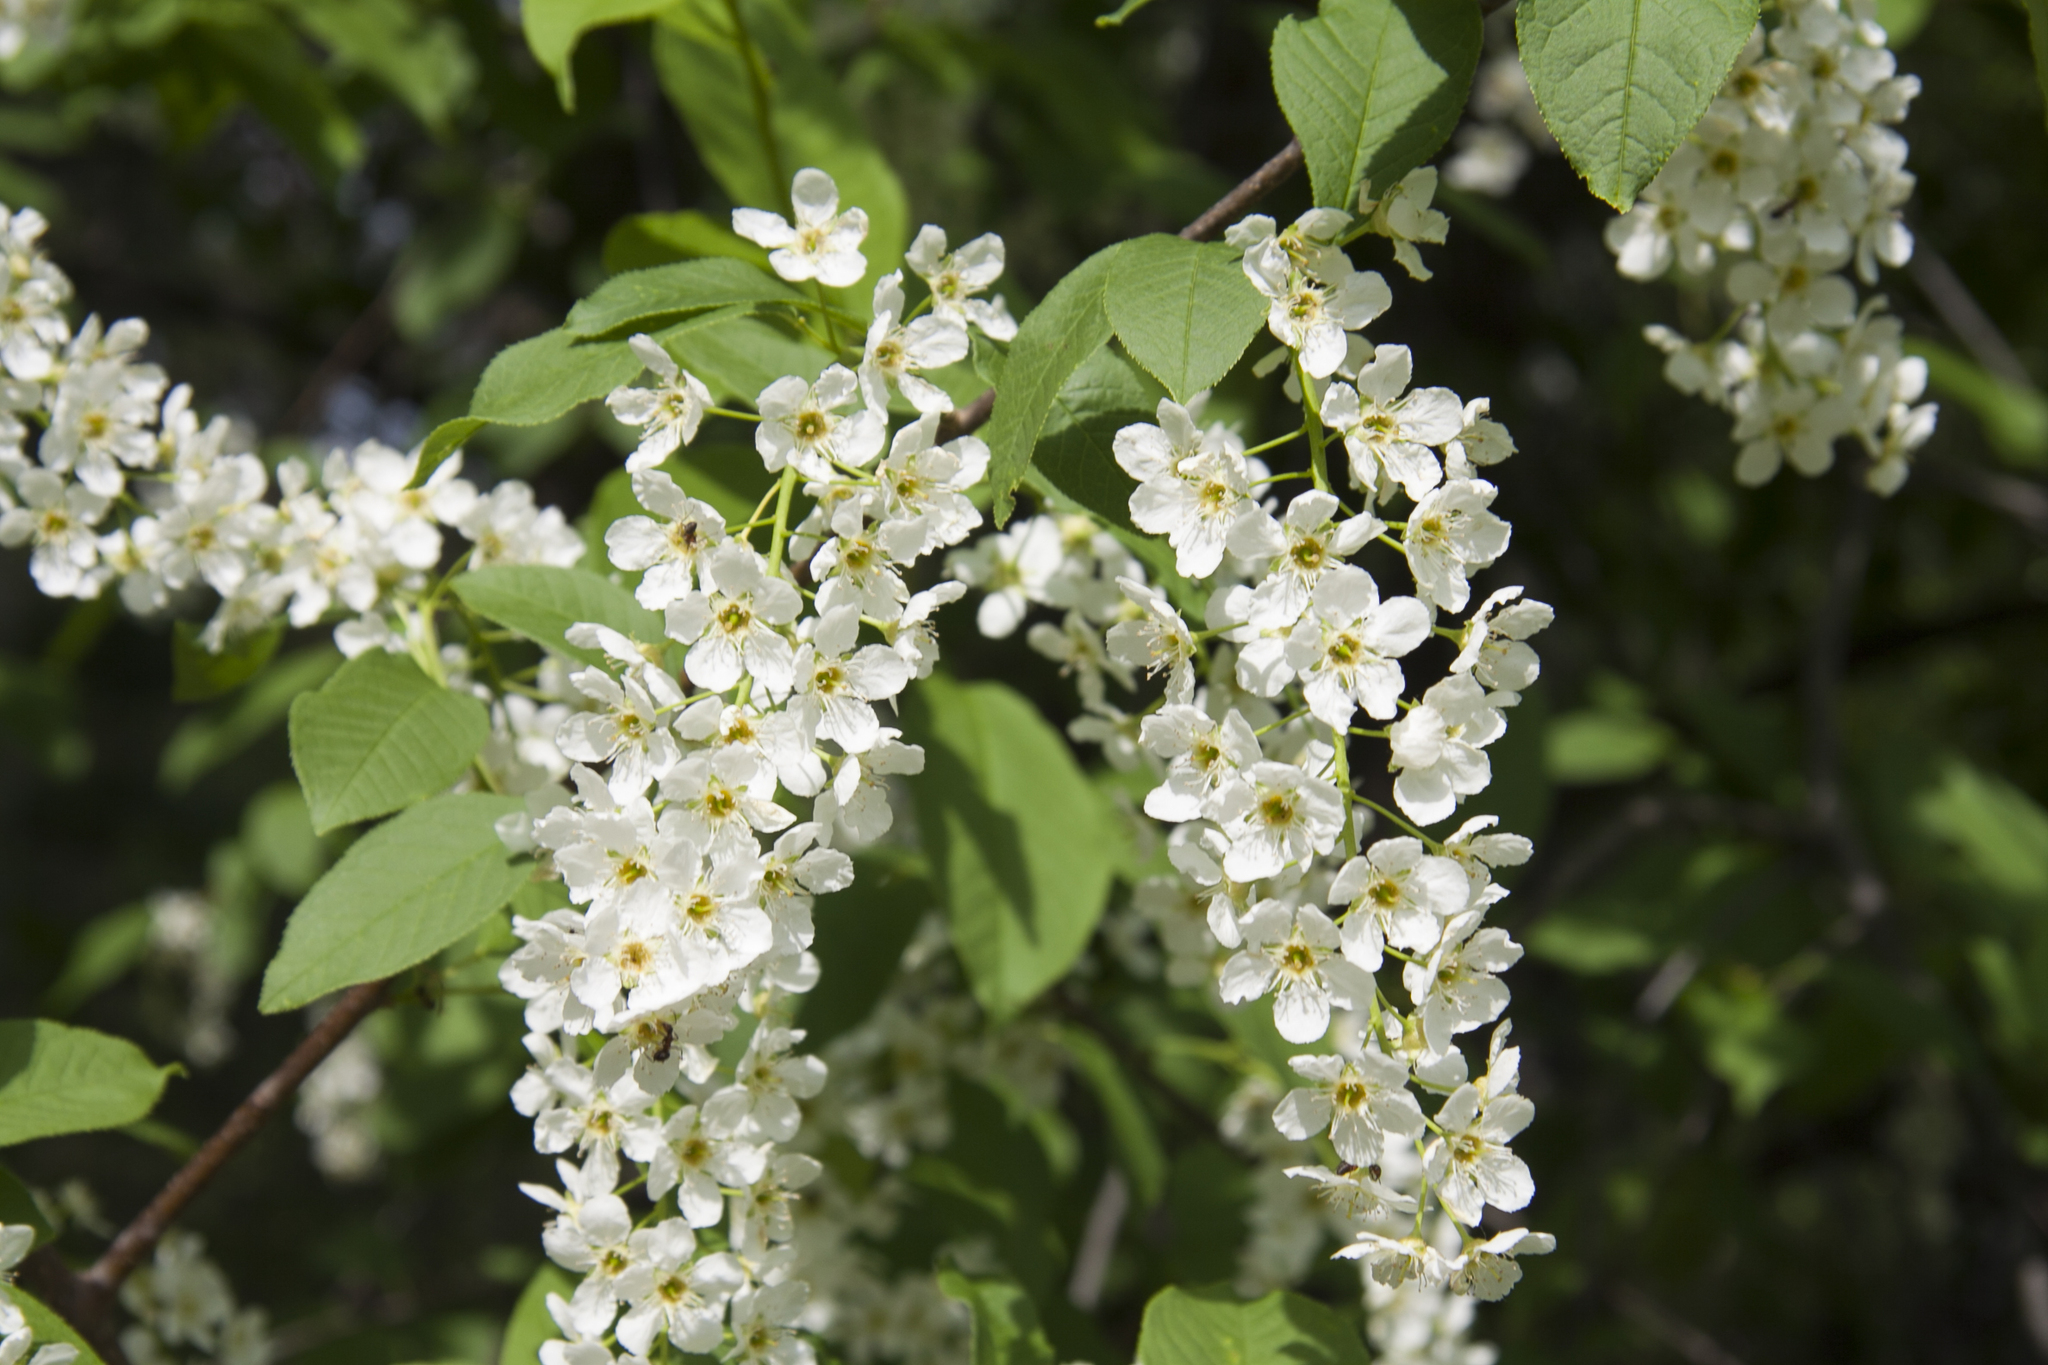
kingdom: Plantae
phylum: Tracheophyta
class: Magnoliopsida
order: Rosales
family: Rosaceae
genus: Prunus
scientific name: Prunus padus
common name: Bird cherry
